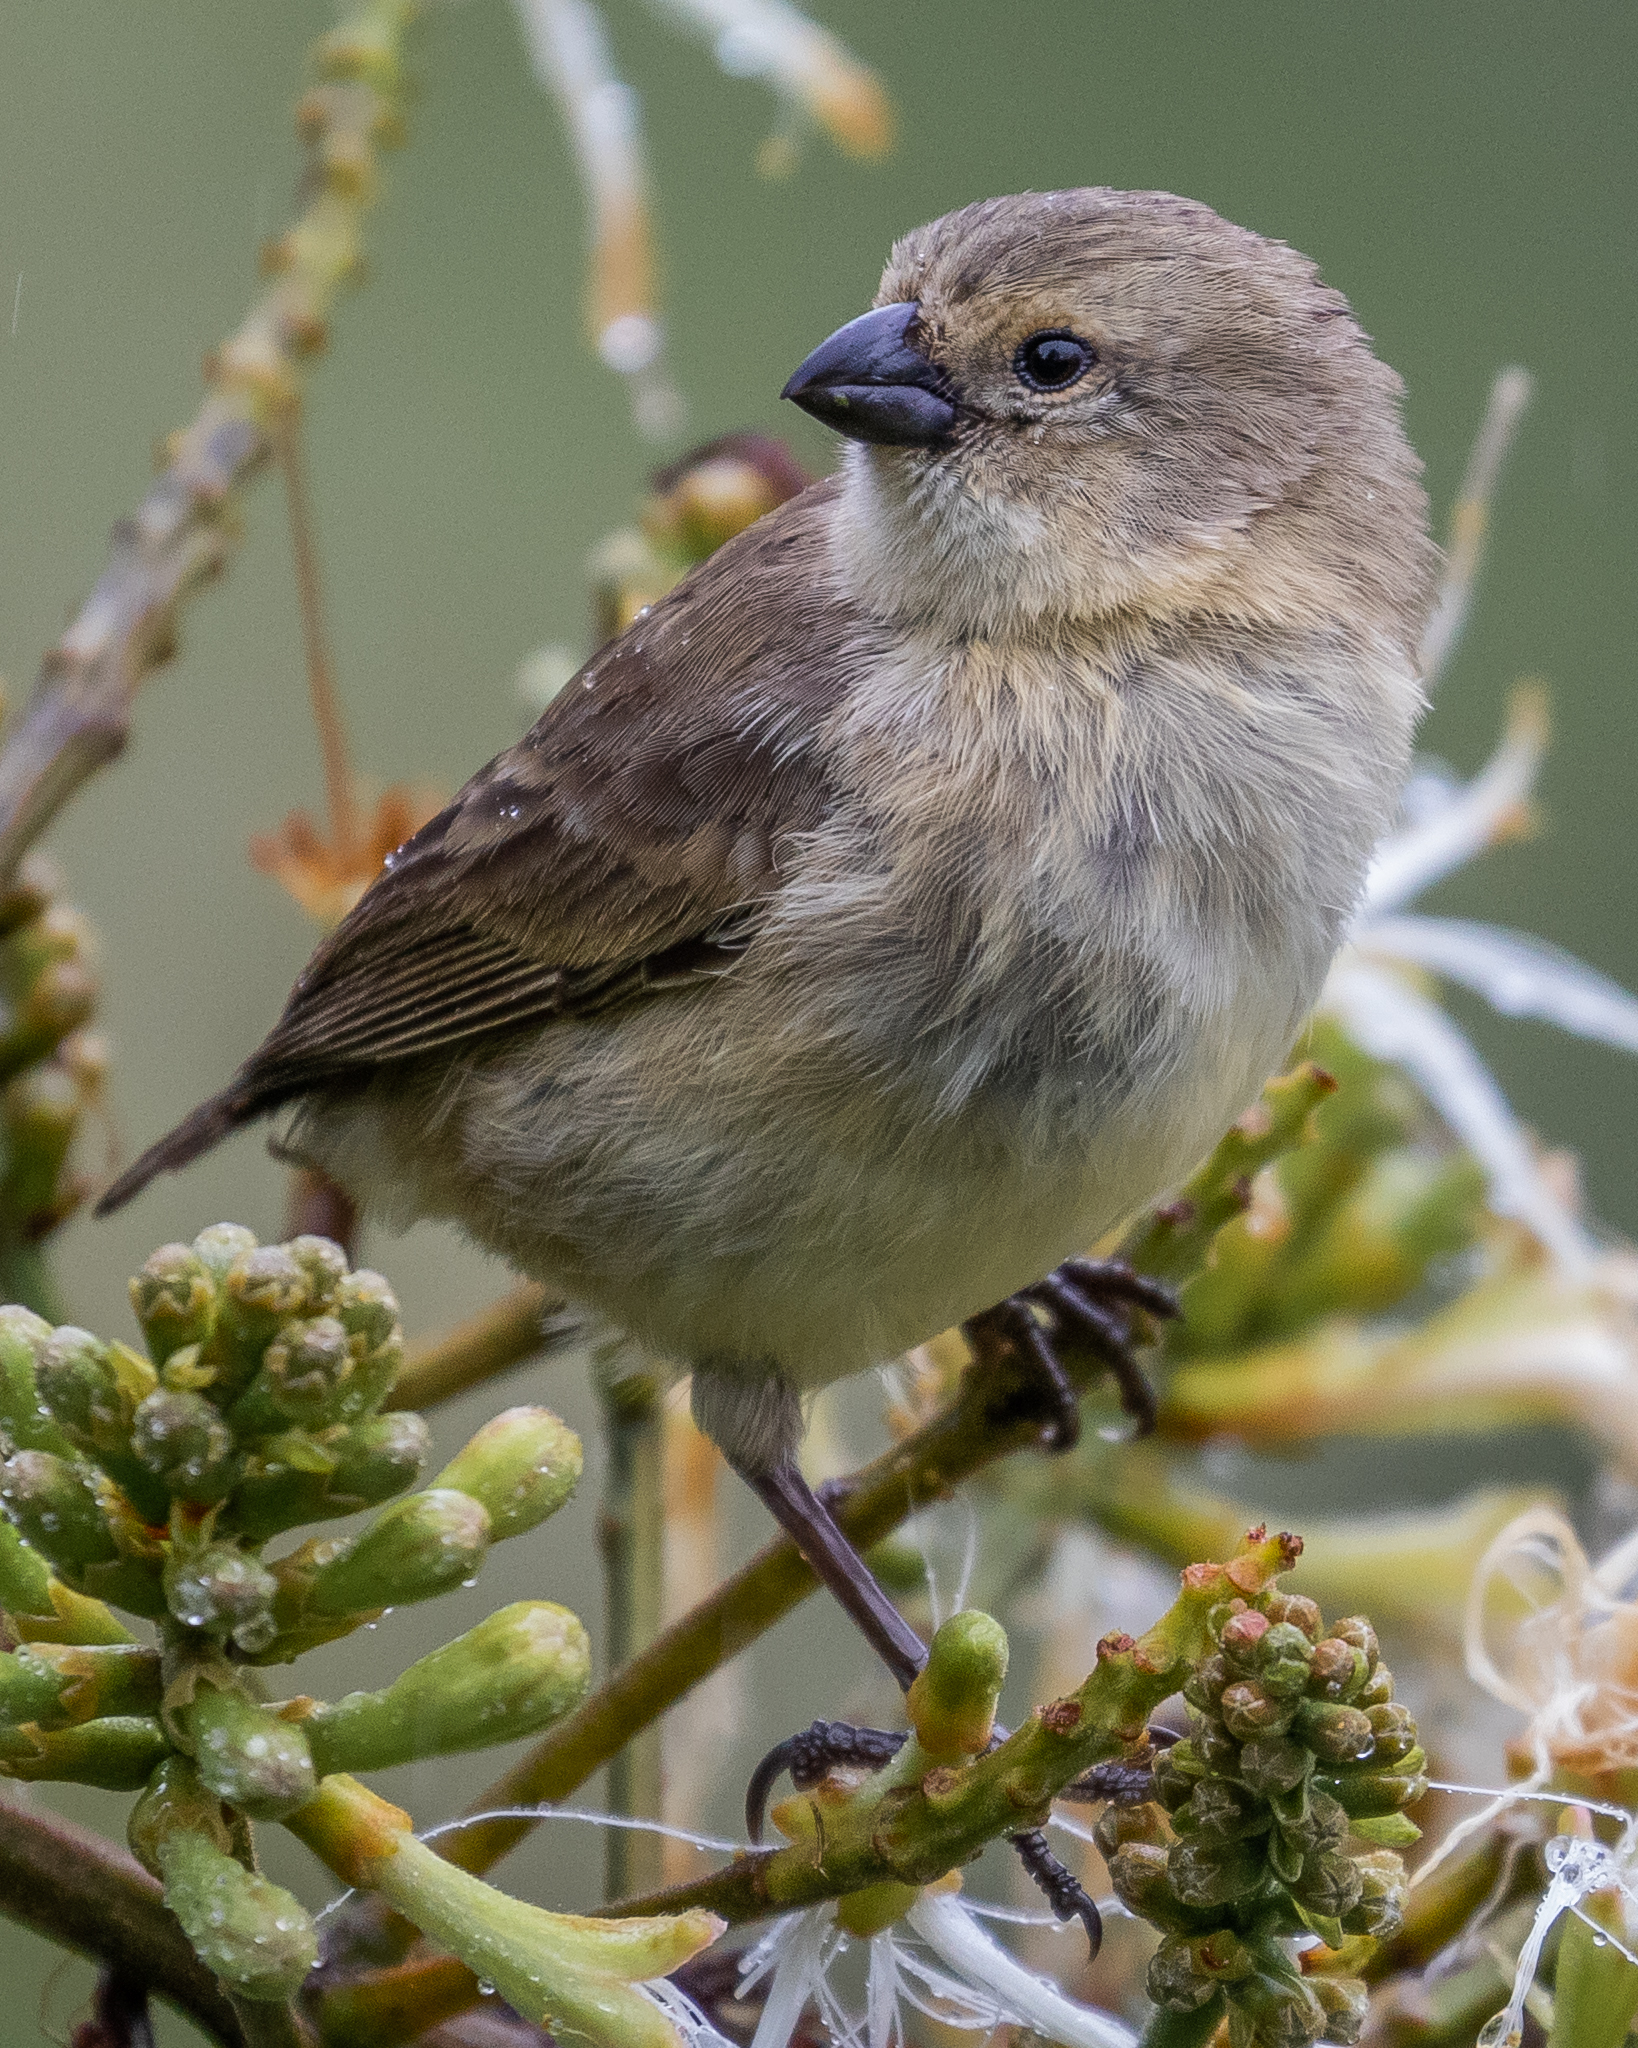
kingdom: Animalia
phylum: Chordata
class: Aves
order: Passeriformes
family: Thraupidae
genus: Camarhynchus
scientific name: Camarhynchus parvulus
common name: Small tree finch
